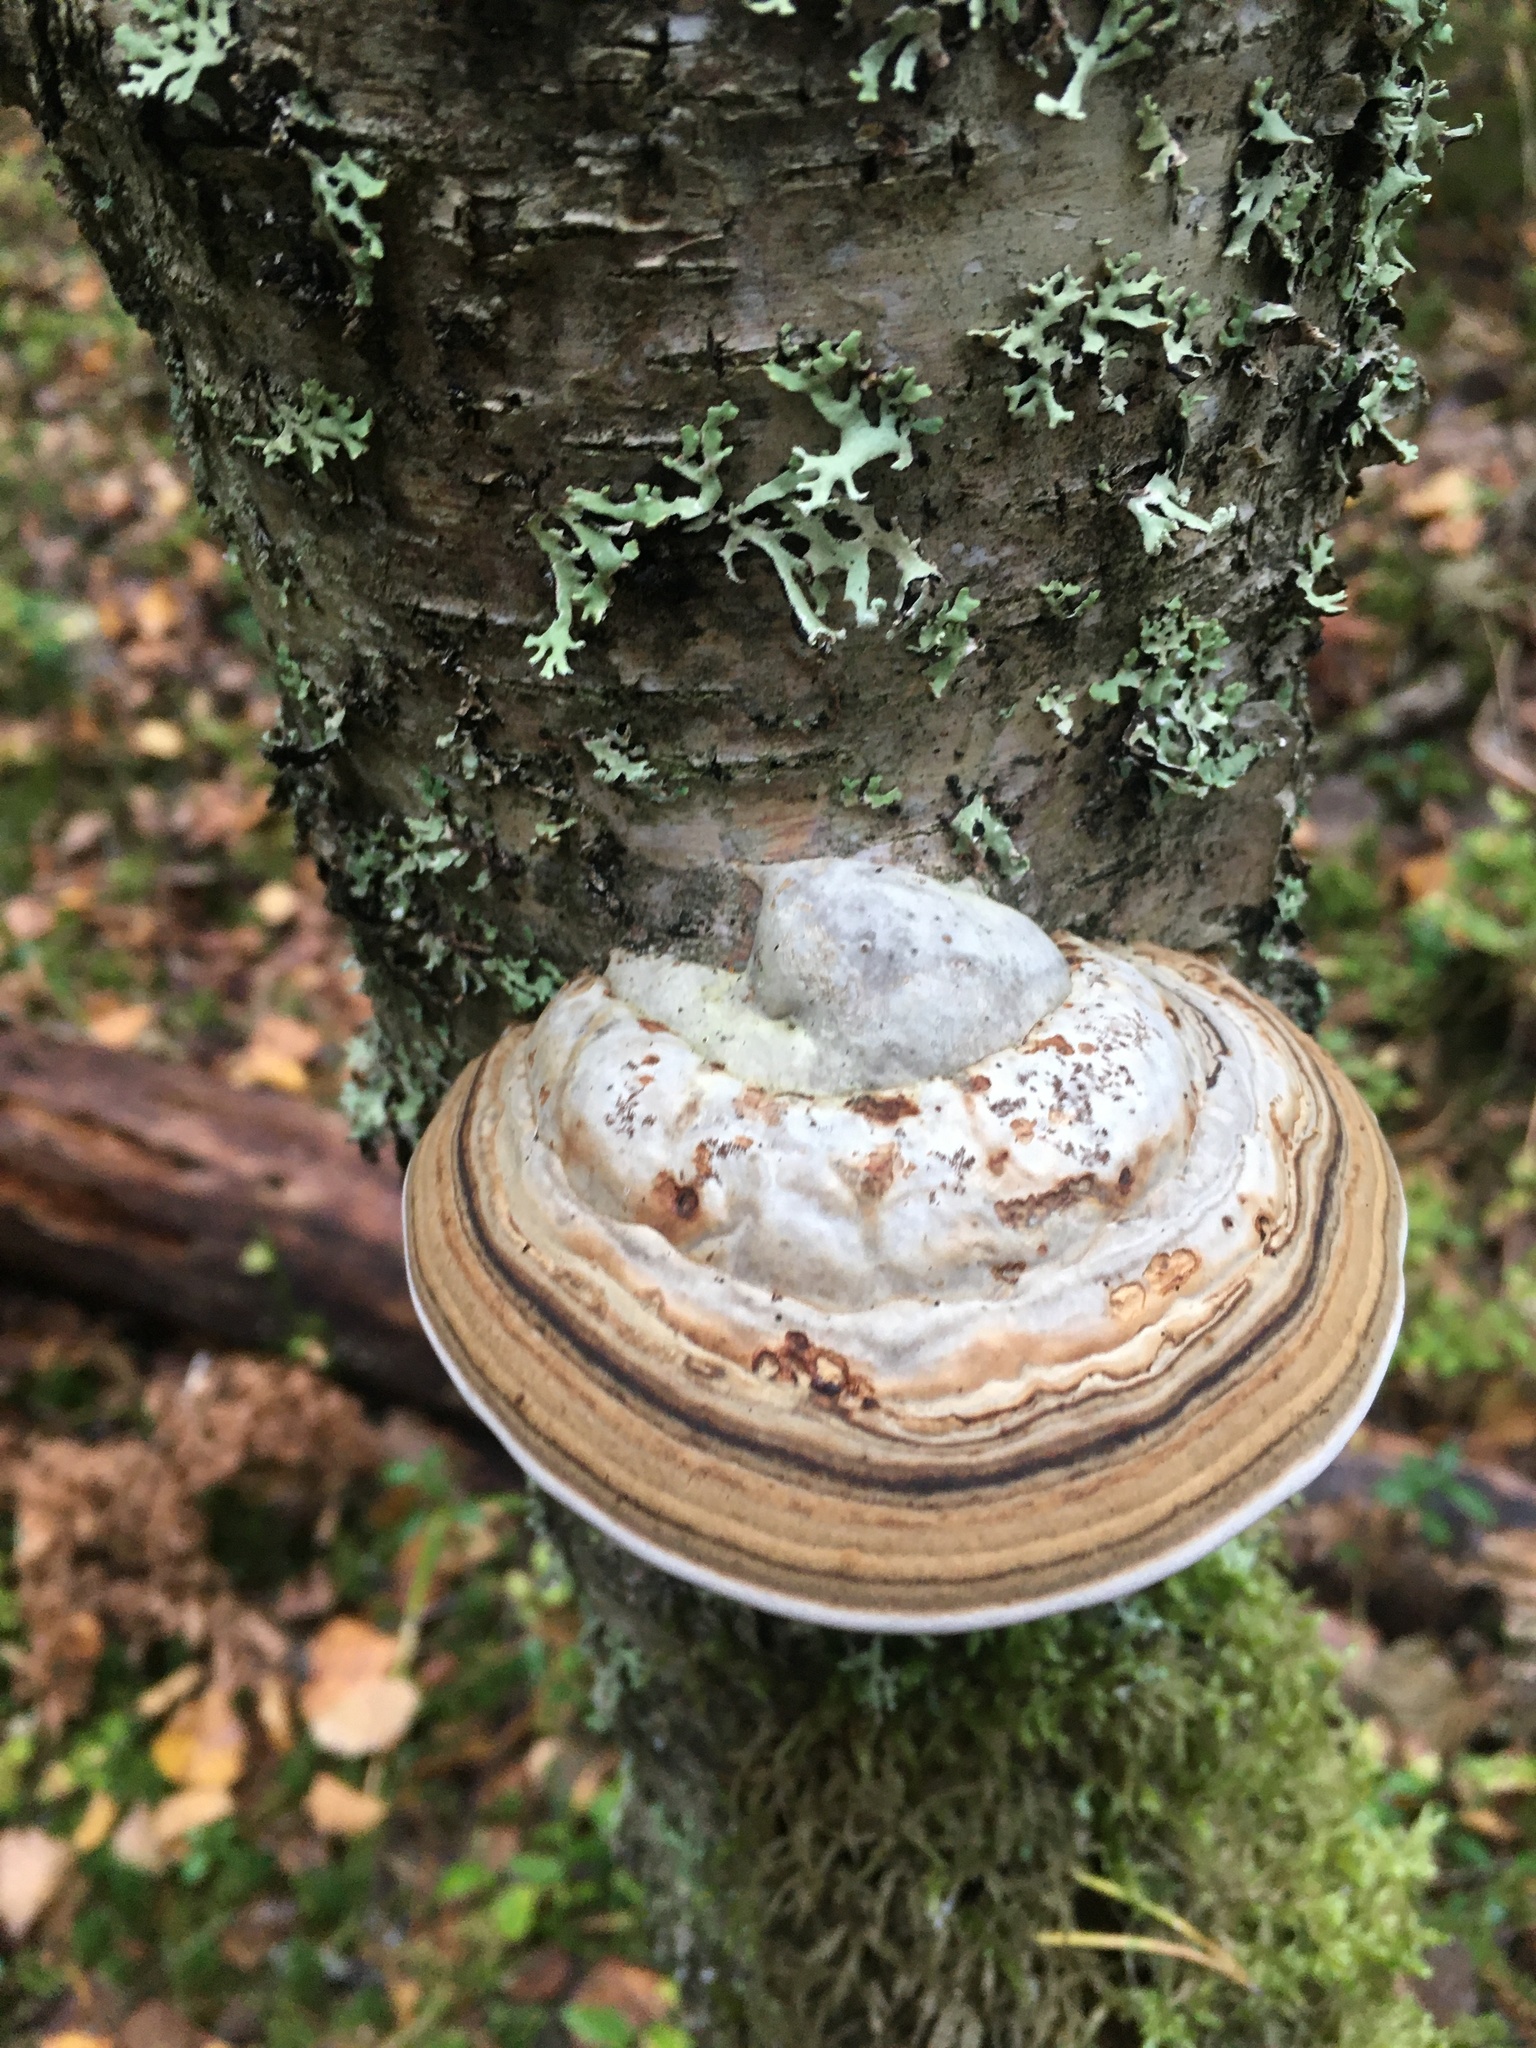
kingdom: Fungi
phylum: Basidiomycota
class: Agaricomycetes
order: Polyporales
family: Polyporaceae
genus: Fomes
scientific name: Fomes fomentarius
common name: Hoof fungus
